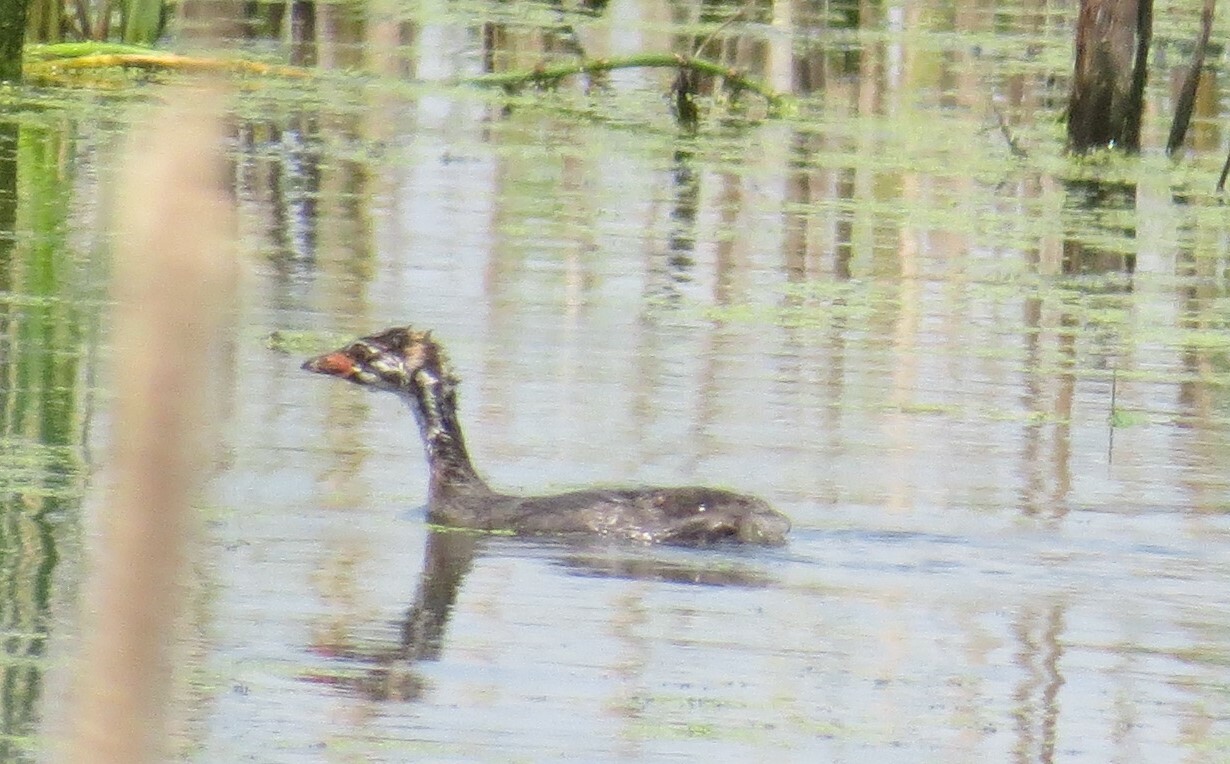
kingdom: Animalia
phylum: Chordata
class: Aves
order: Podicipediformes
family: Podicipedidae
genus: Podilymbus
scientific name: Podilymbus podiceps
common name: Pied-billed grebe
